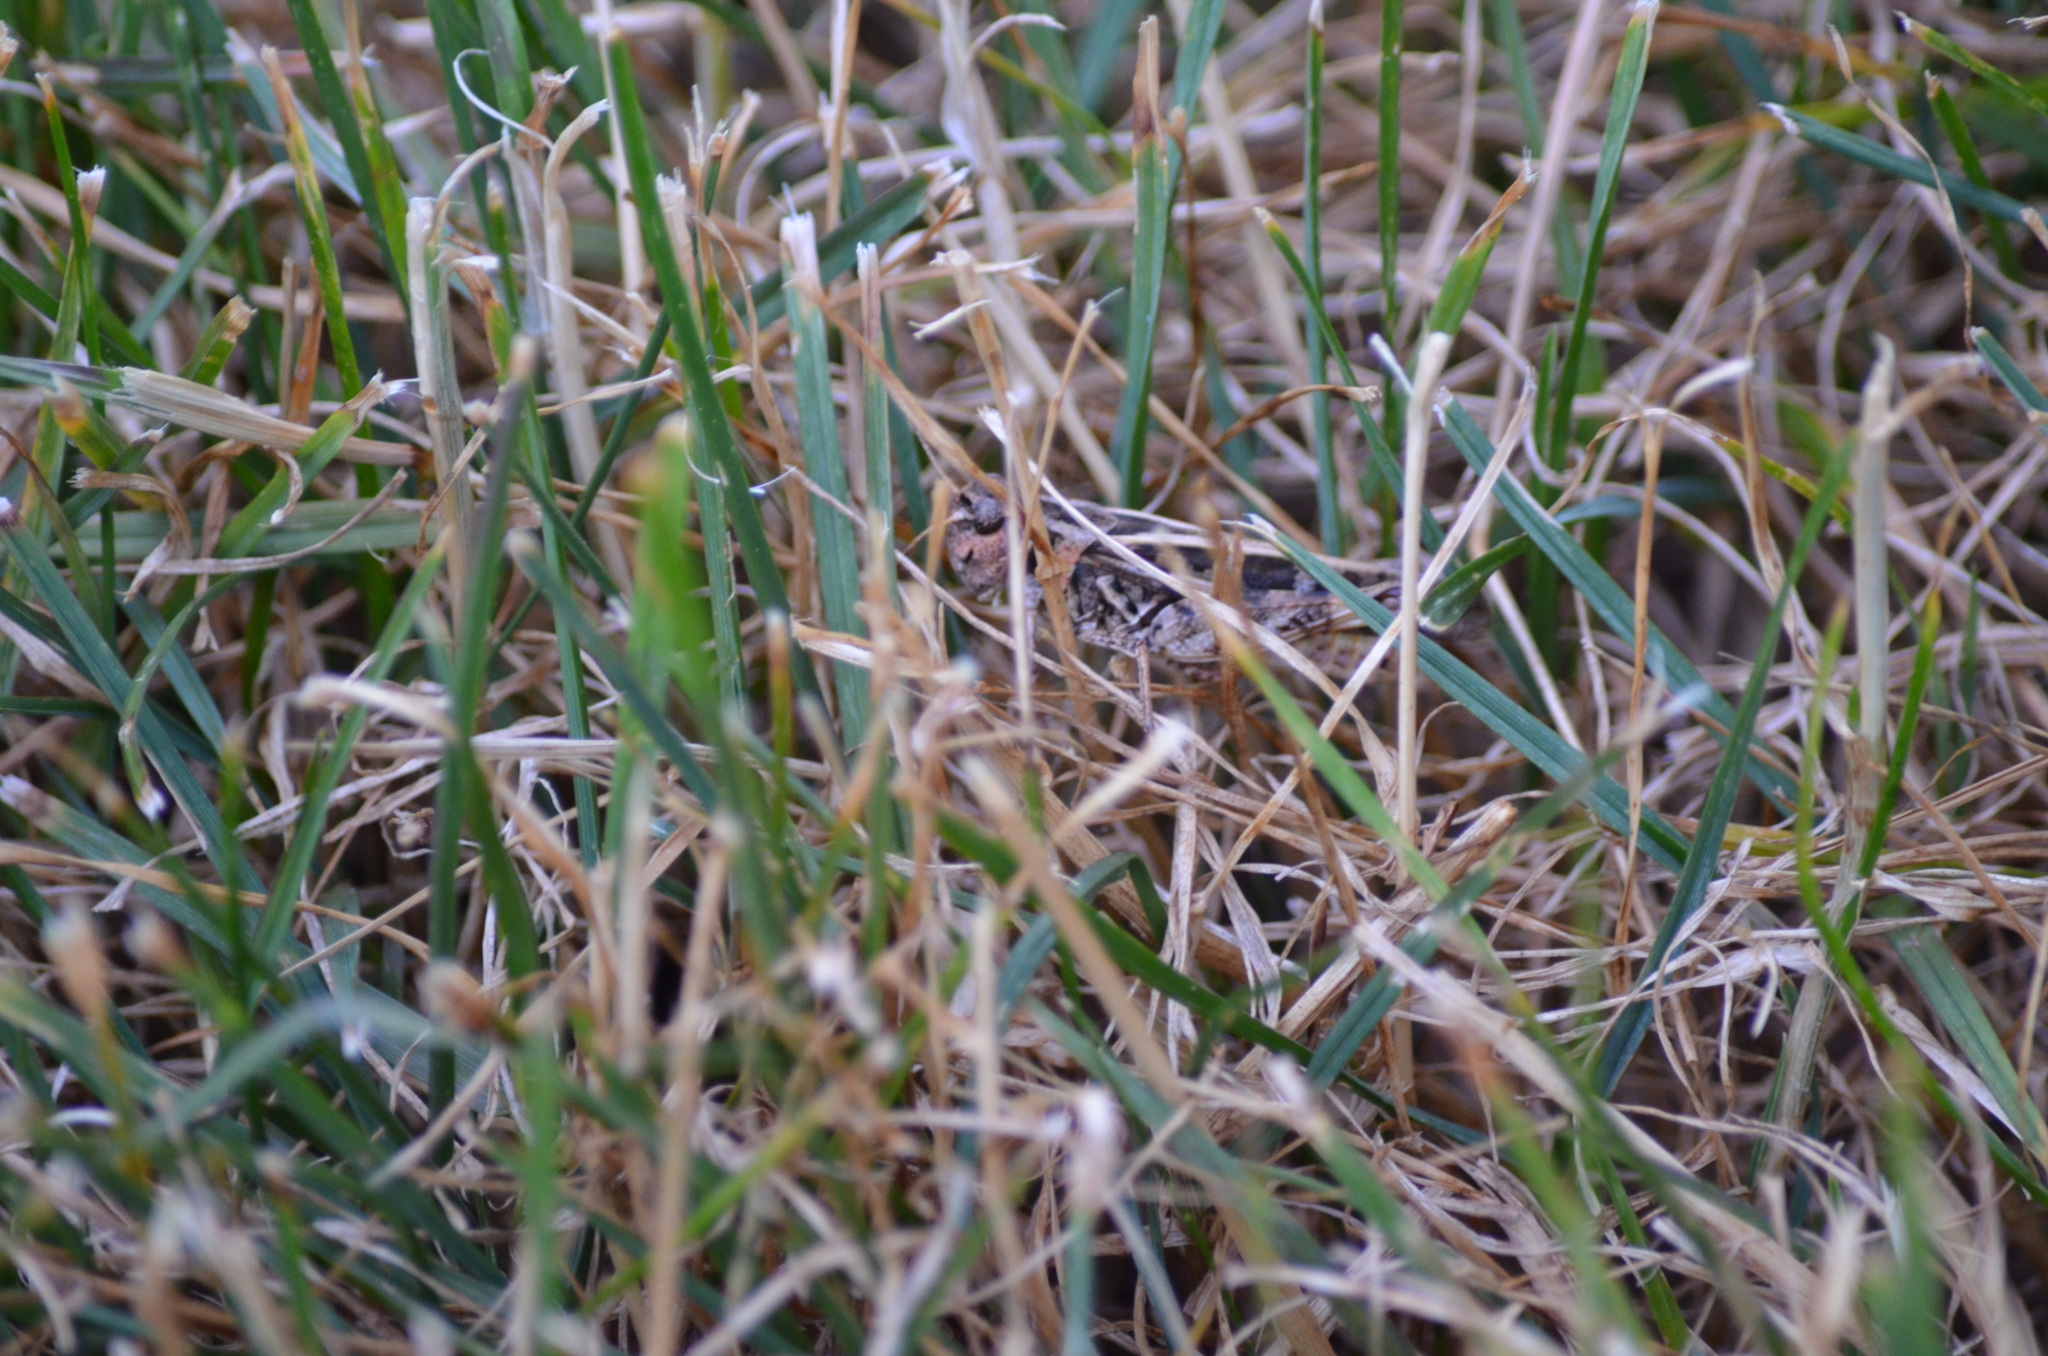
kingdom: Animalia
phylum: Arthropoda
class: Insecta
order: Orthoptera
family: Acrididae
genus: Camnula
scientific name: Camnula pellucida
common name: Clear-winged grasshopper
